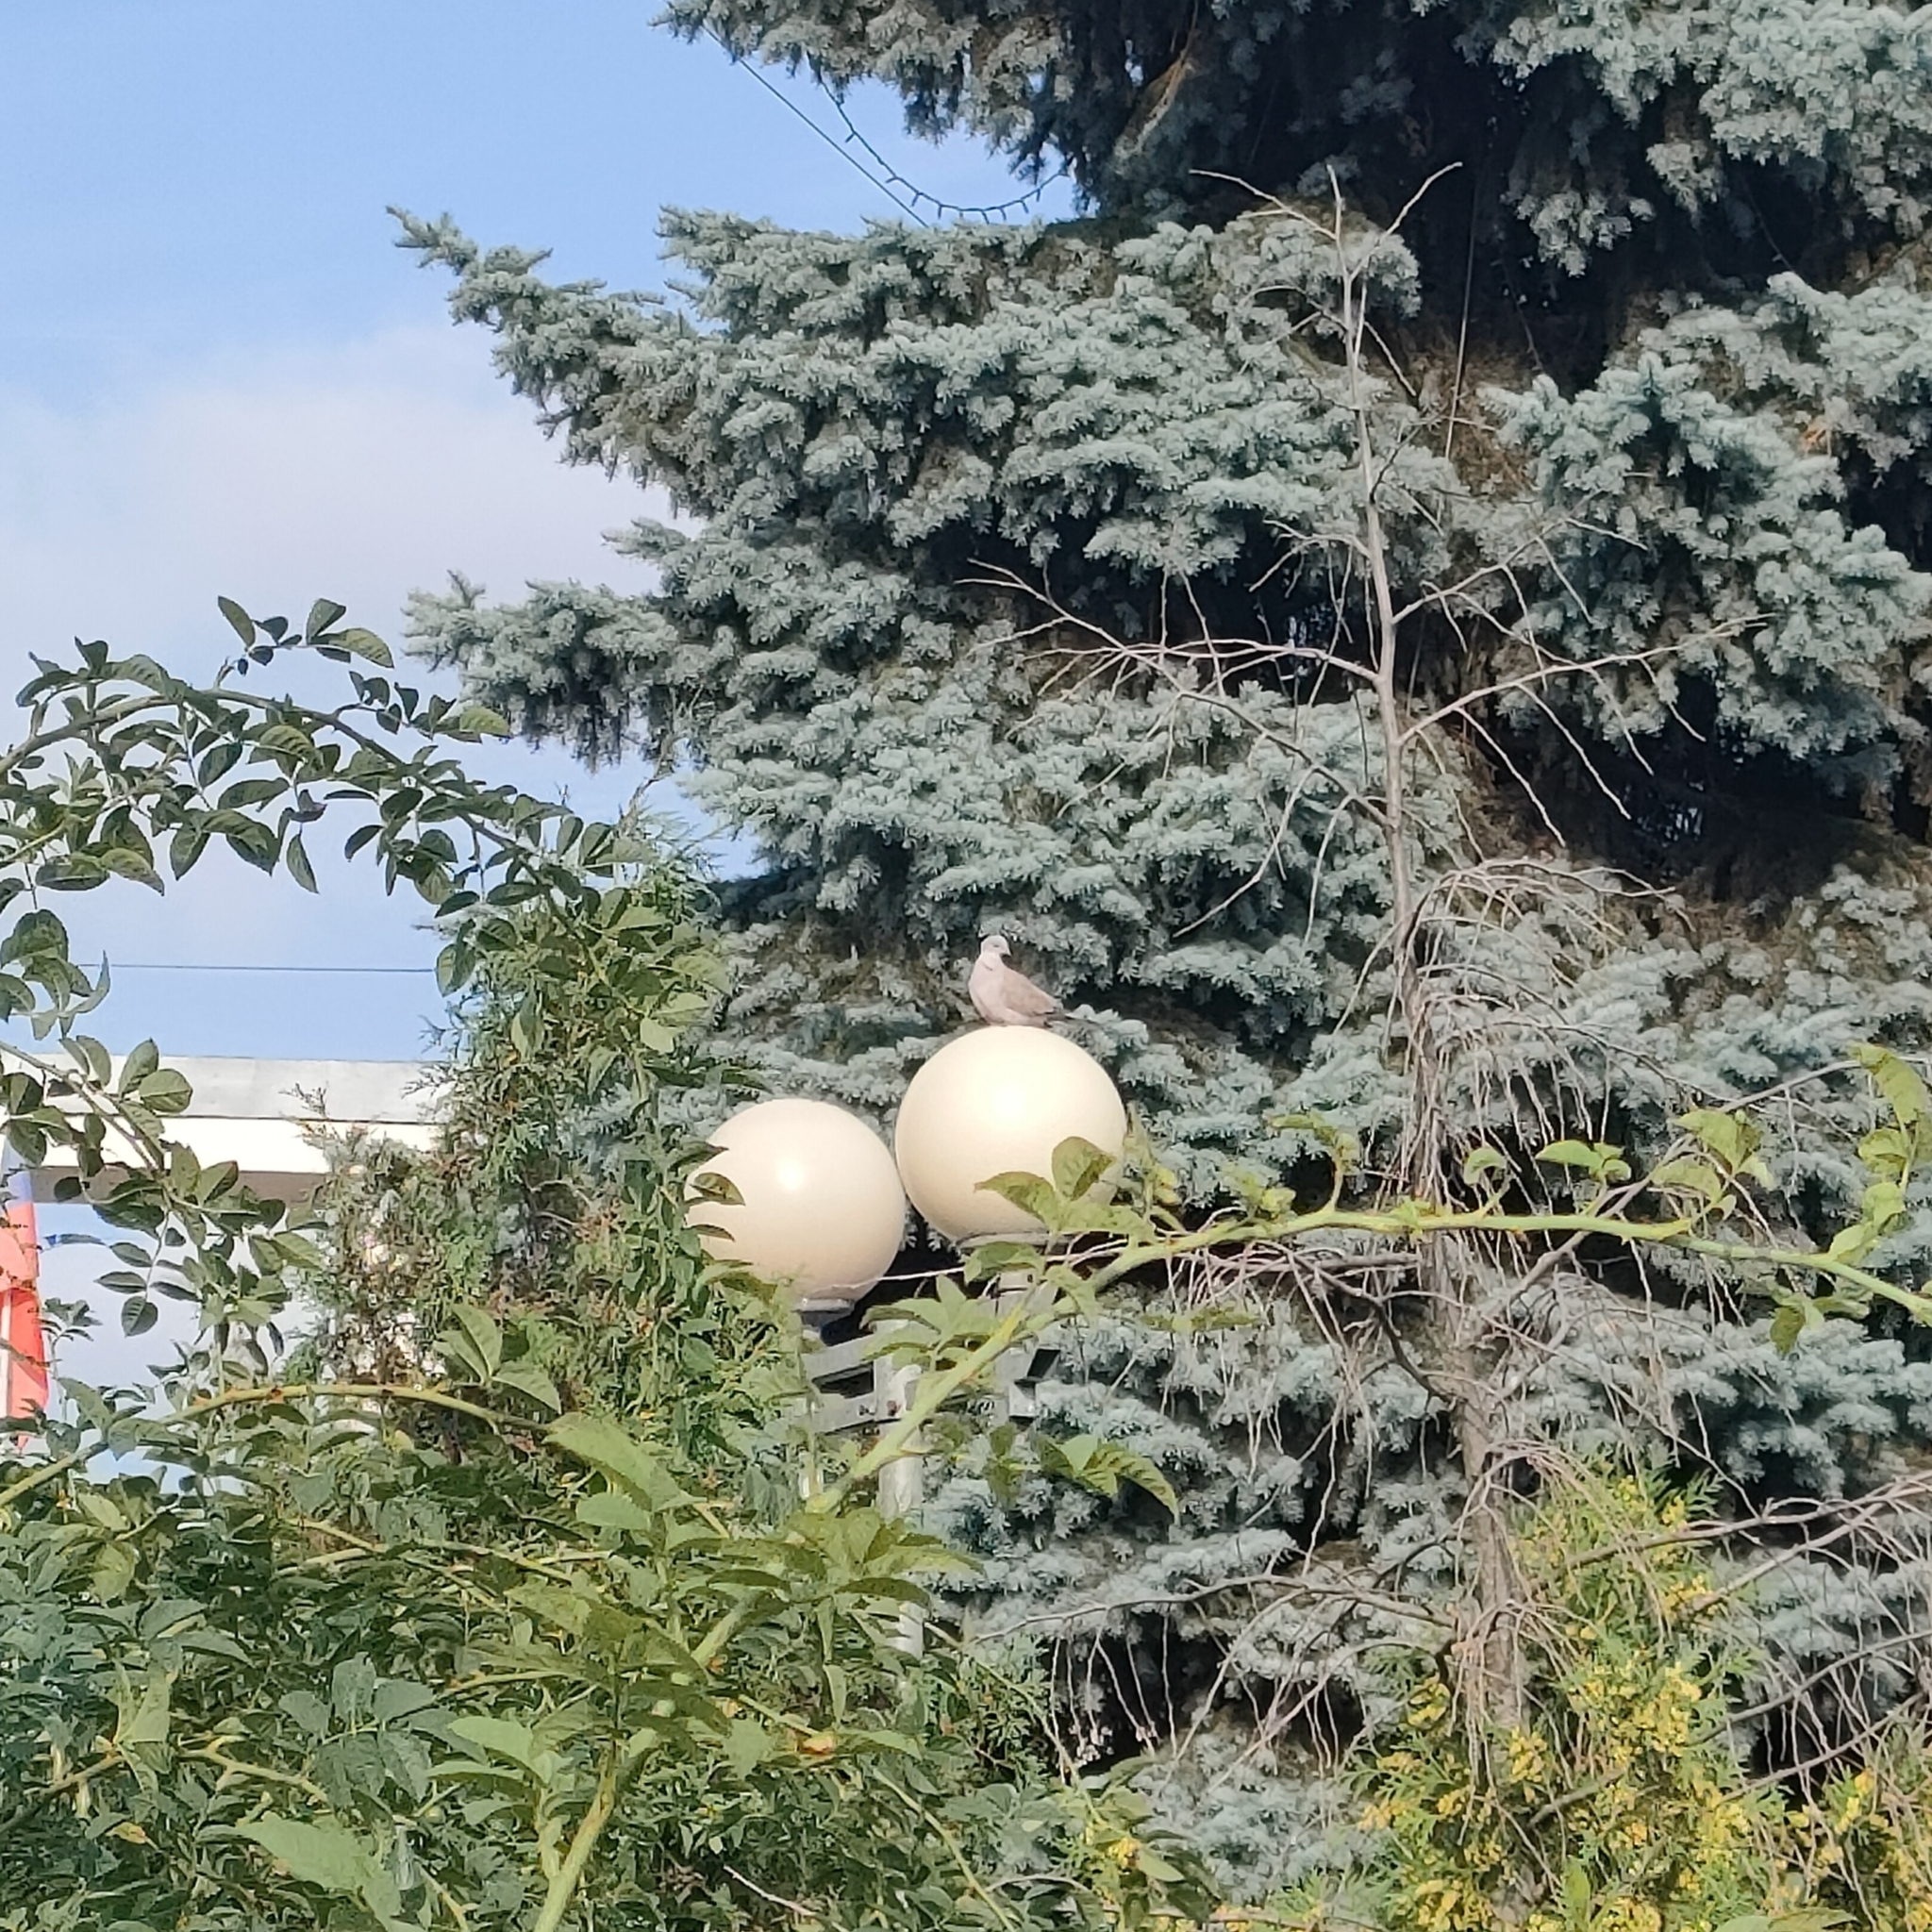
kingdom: Animalia
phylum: Chordata
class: Aves
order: Columbiformes
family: Columbidae
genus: Streptopelia
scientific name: Streptopelia decaocto
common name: Eurasian collared dove
